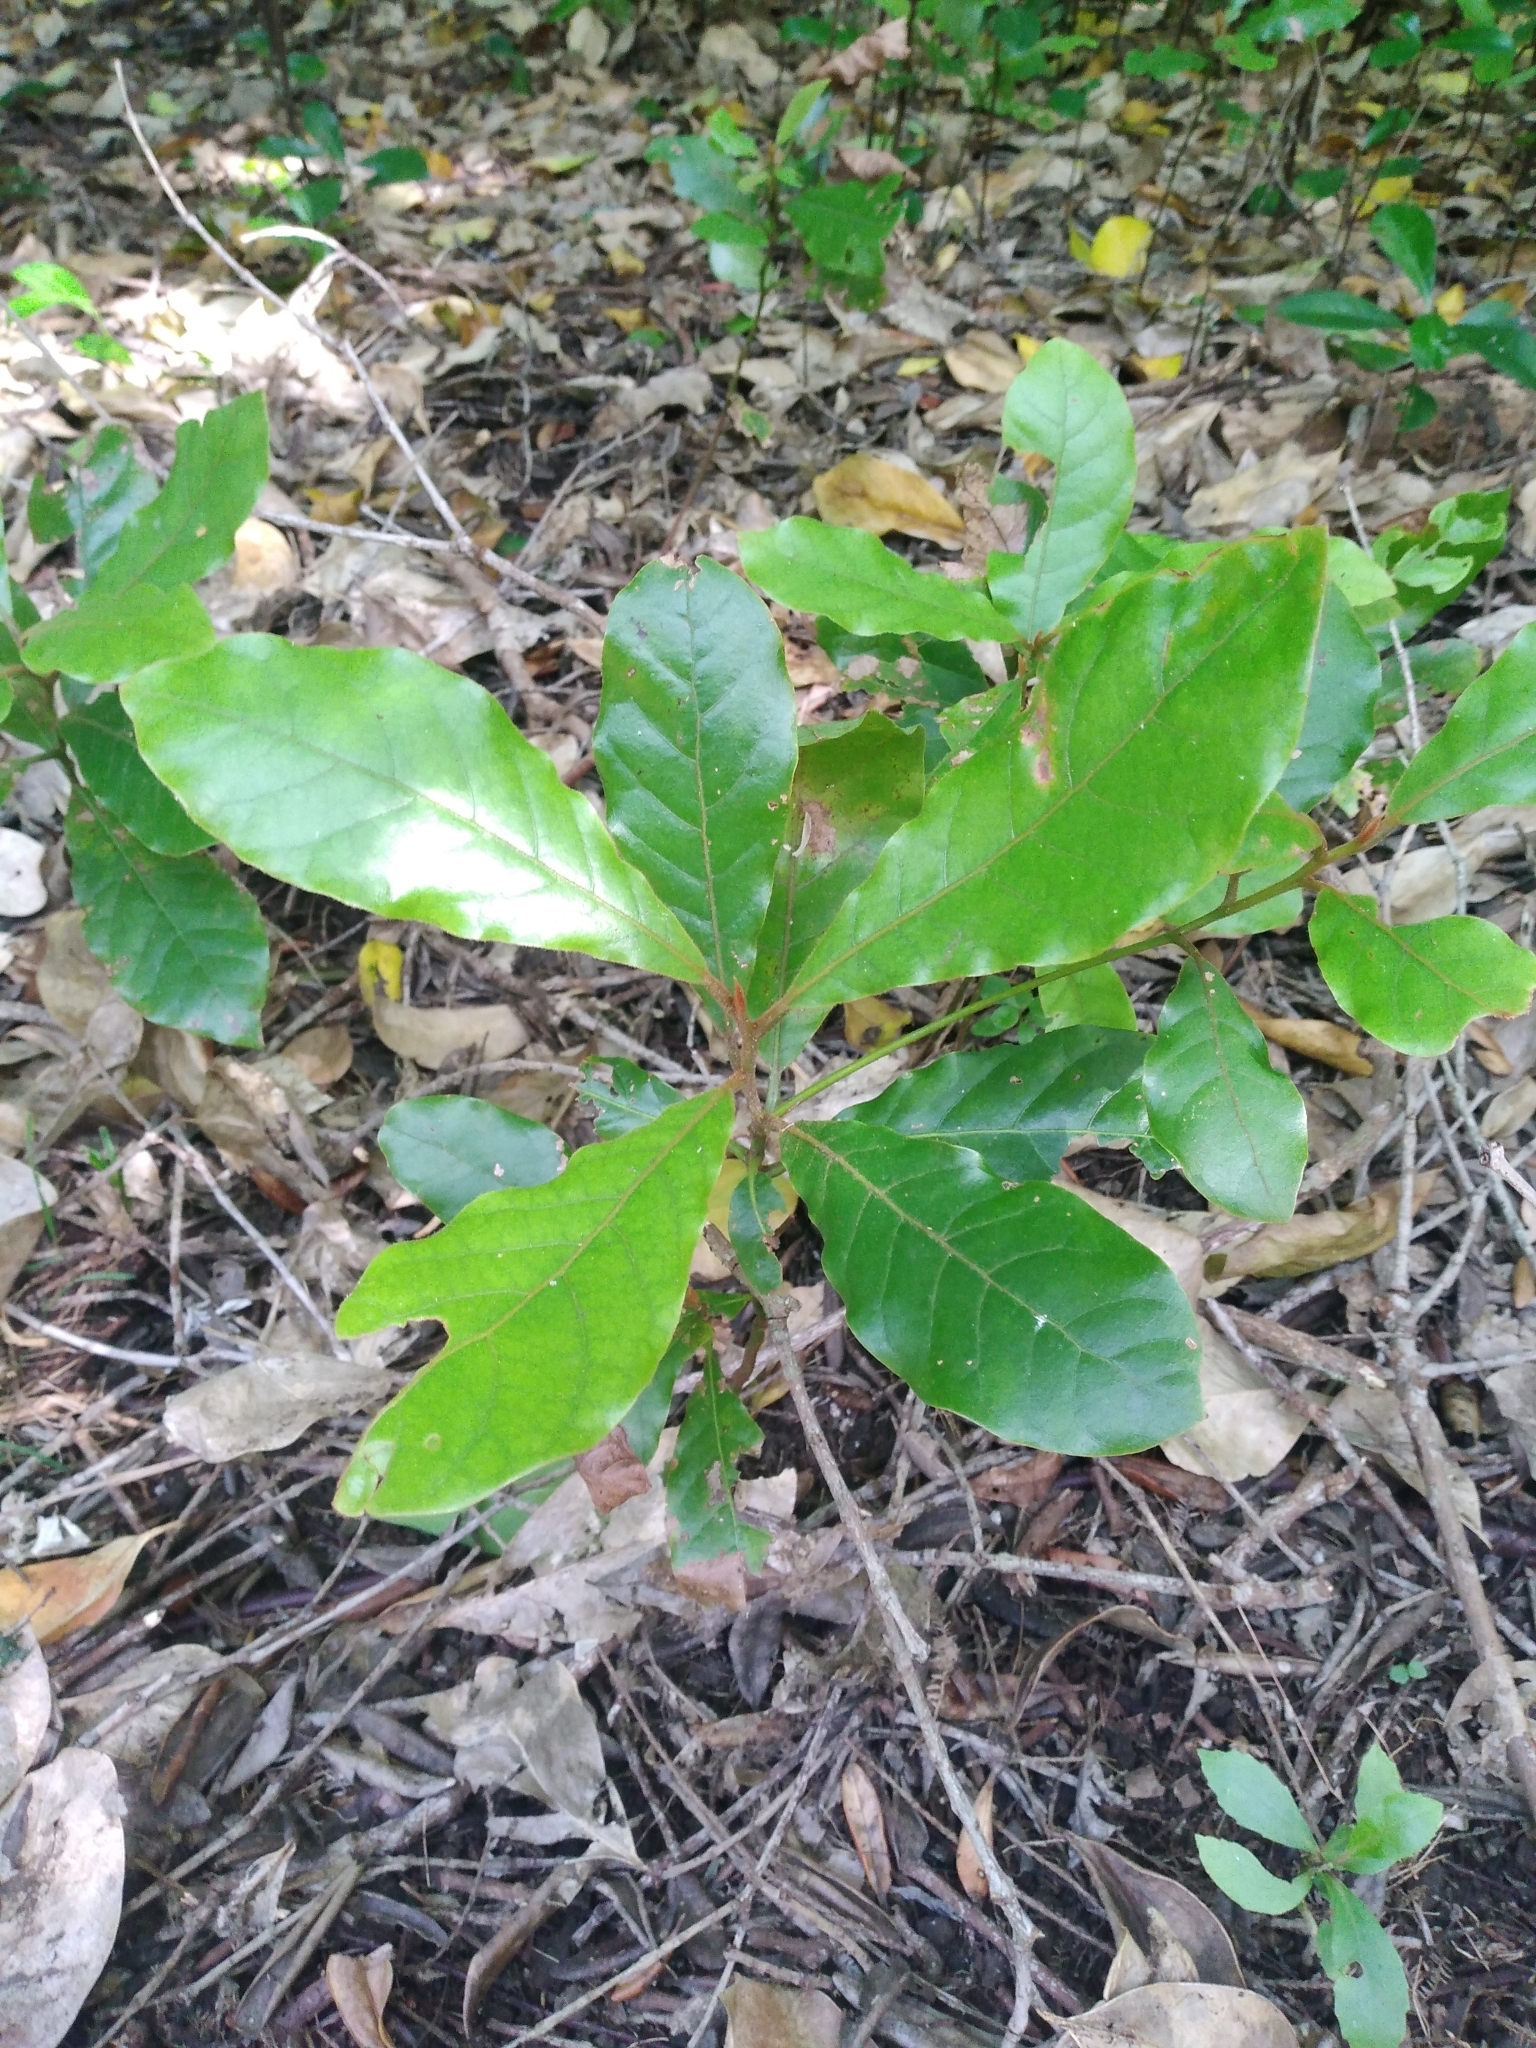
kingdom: Plantae
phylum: Tracheophyta
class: Magnoliopsida
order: Laurales
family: Lauraceae
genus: Beilschmiedia
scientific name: Beilschmiedia tarairi
